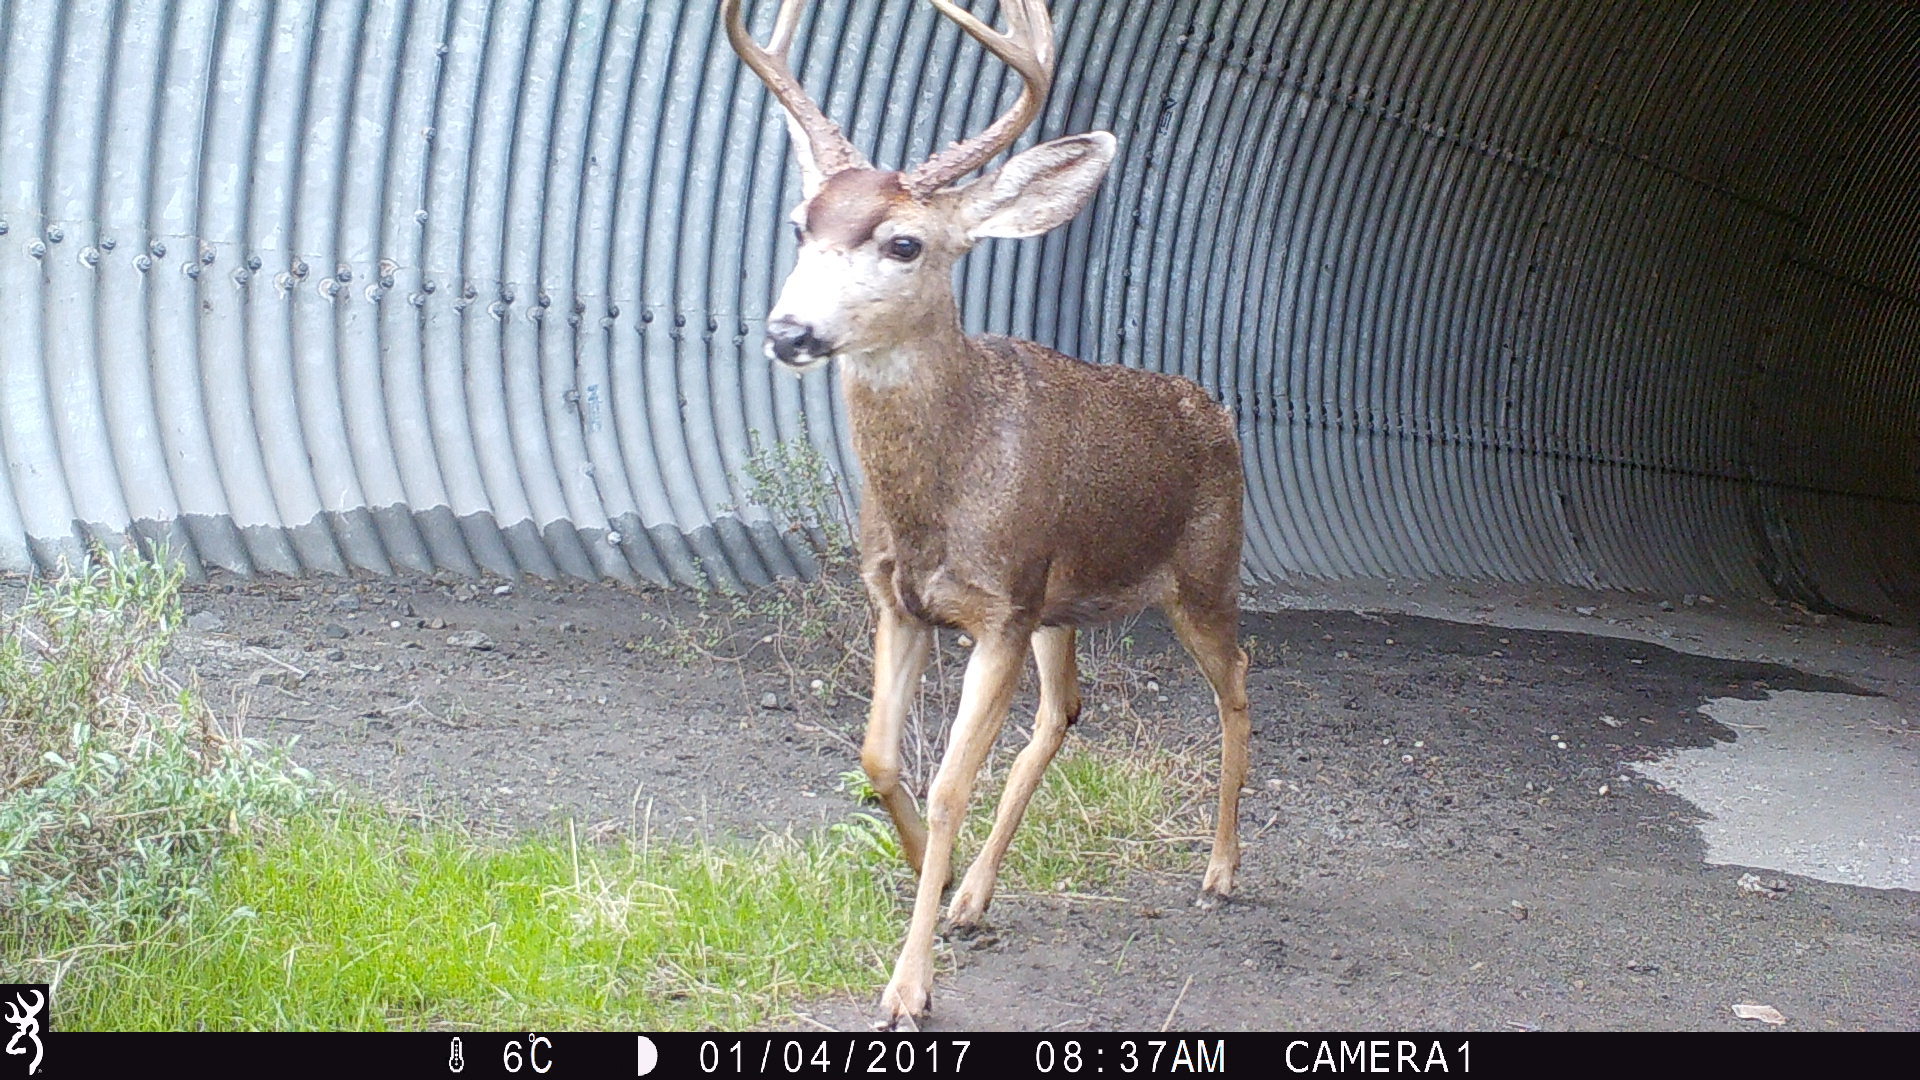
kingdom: Animalia
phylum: Chordata
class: Mammalia
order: Artiodactyla
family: Cervidae
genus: Odocoileus
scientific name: Odocoileus hemionus
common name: Mule deer
